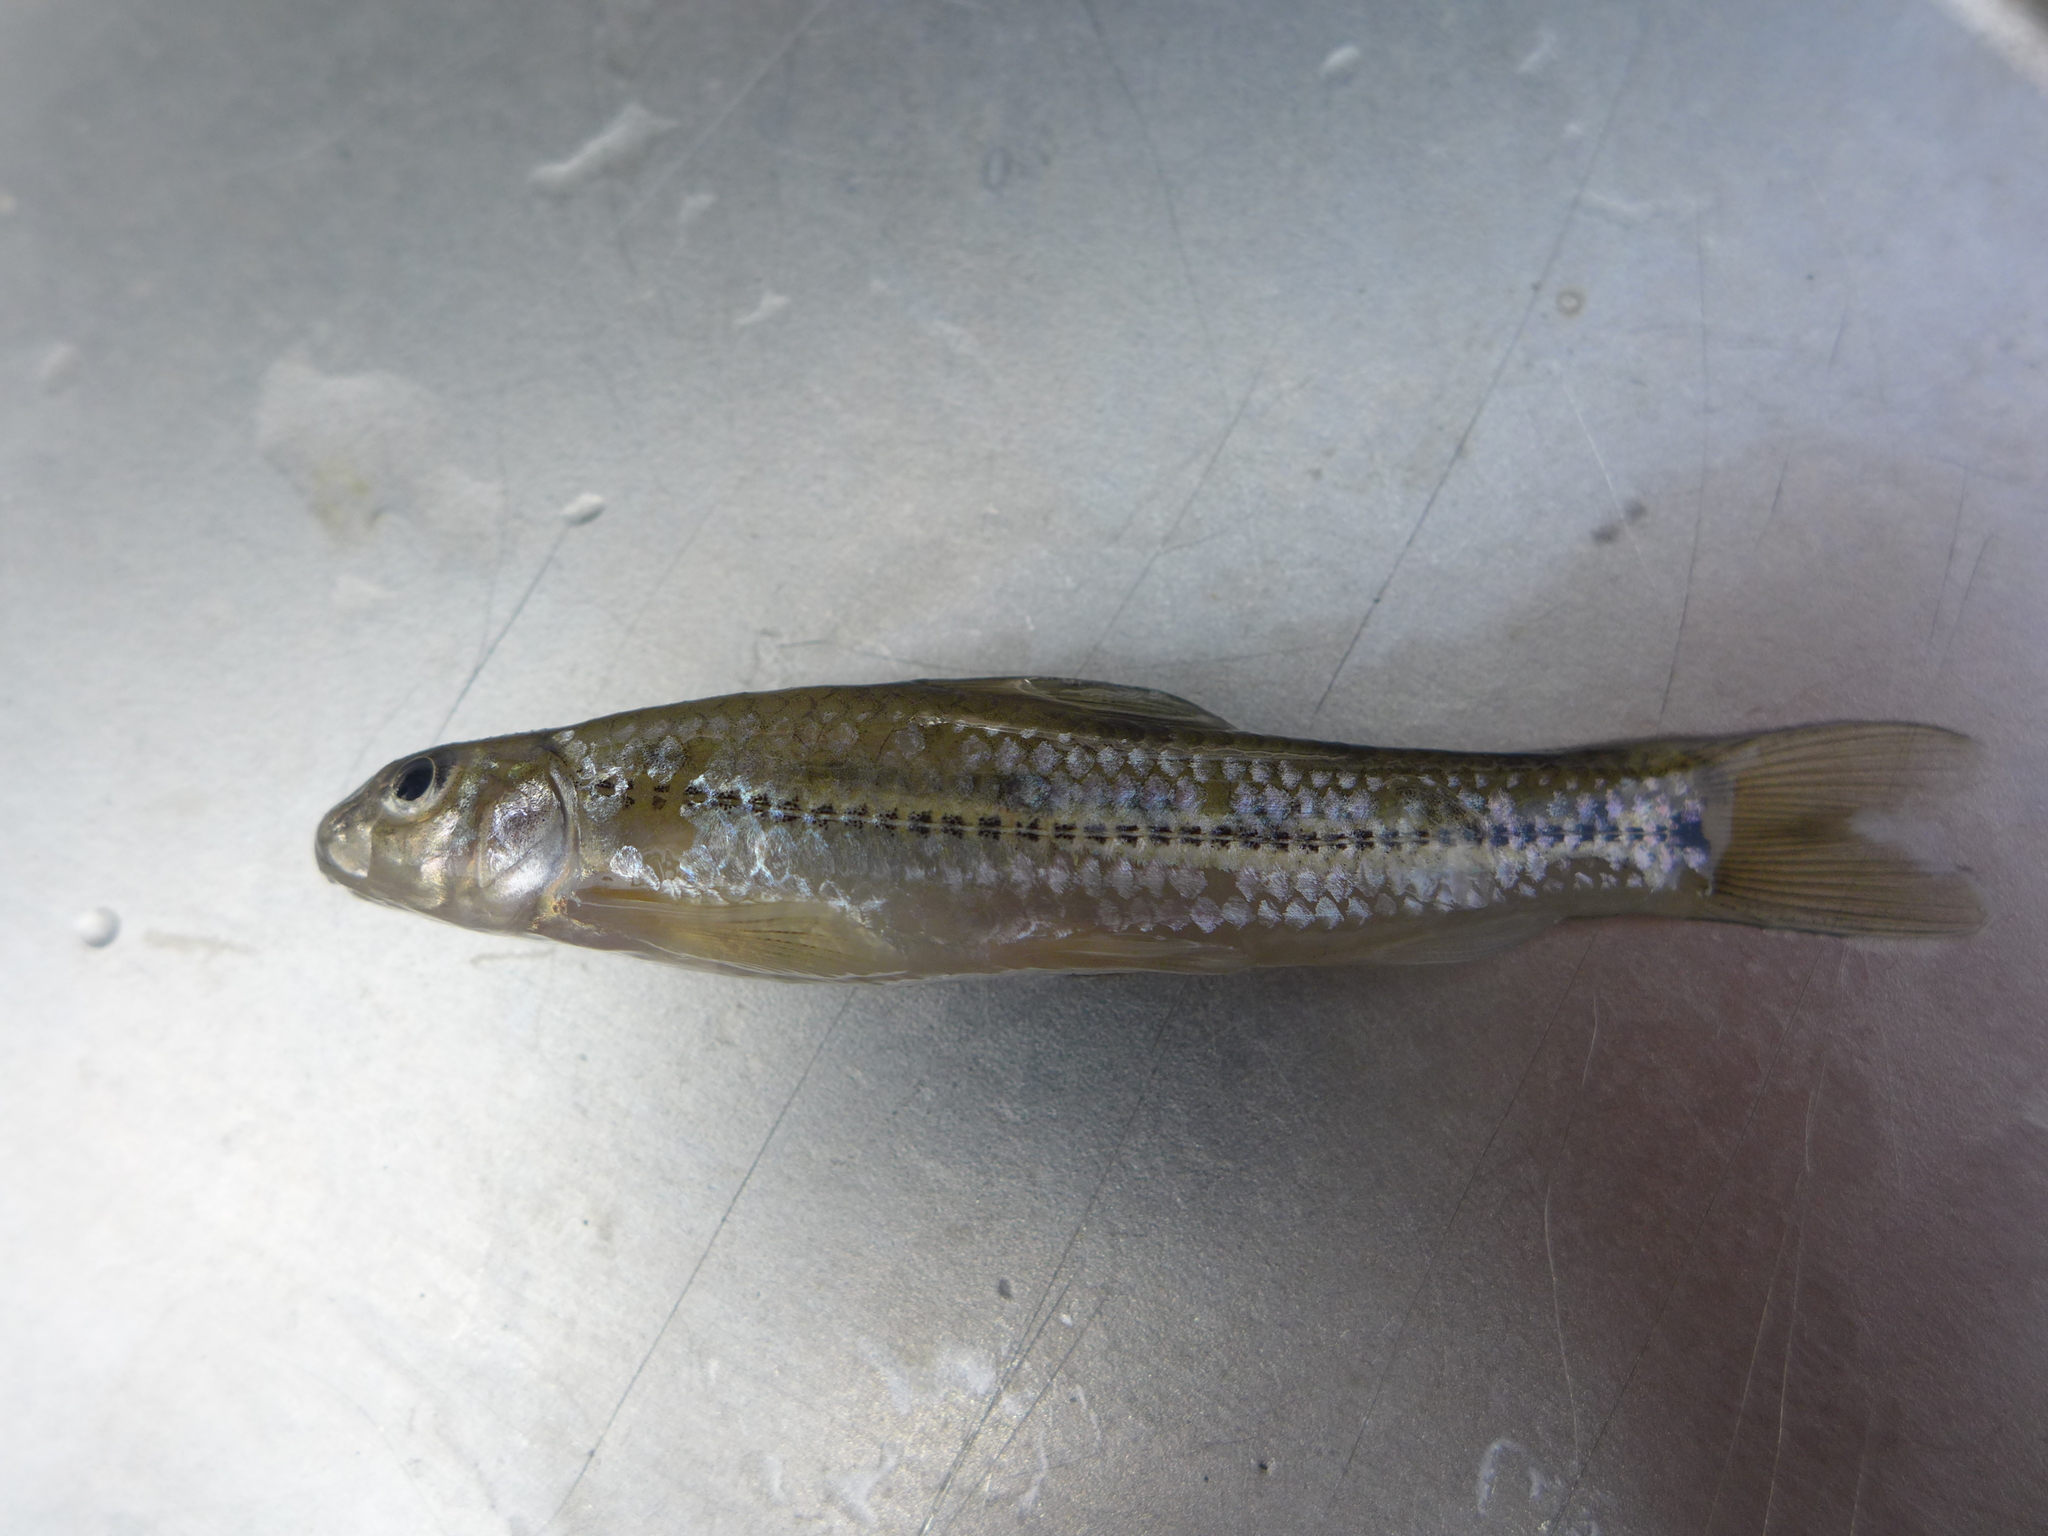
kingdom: Animalia
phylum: Chordata
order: Cypriniformes
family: Cyprinidae
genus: Pseudorasbora
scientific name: Pseudorasbora parva
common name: Topmouth gudgeon
